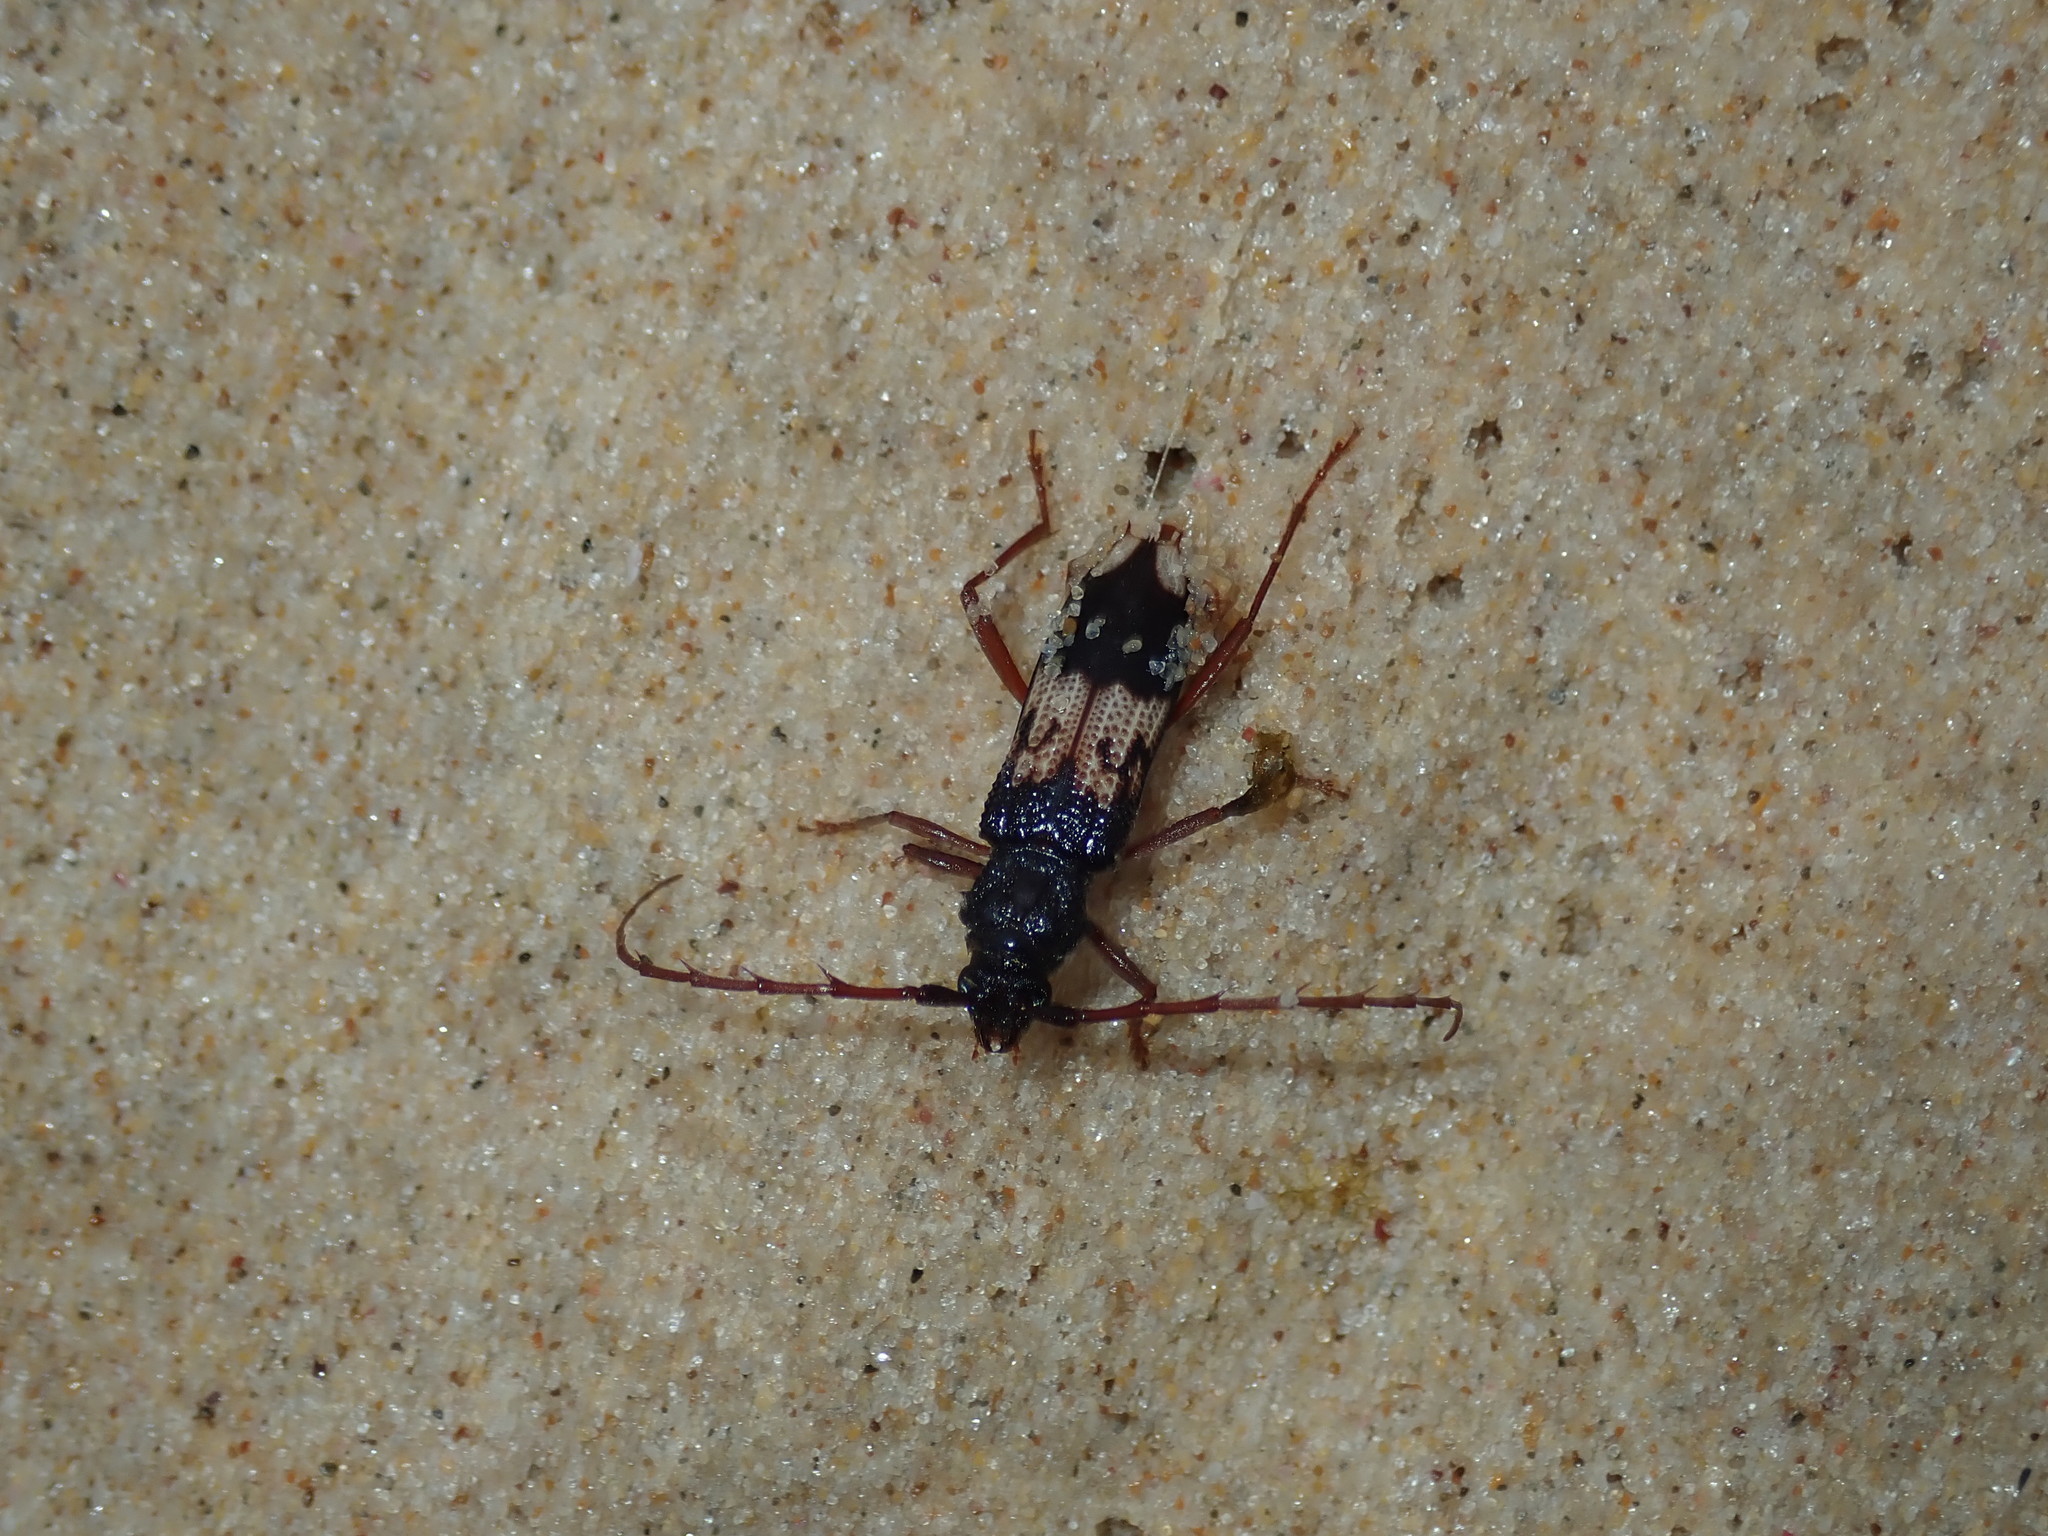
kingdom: Animalia
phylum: Arthropoda
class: Insecta
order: Coleoptera
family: Cerambycidae
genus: Phoracantha
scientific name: Phoracantha semipunctata
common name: Eucalyptus longhorn borer
